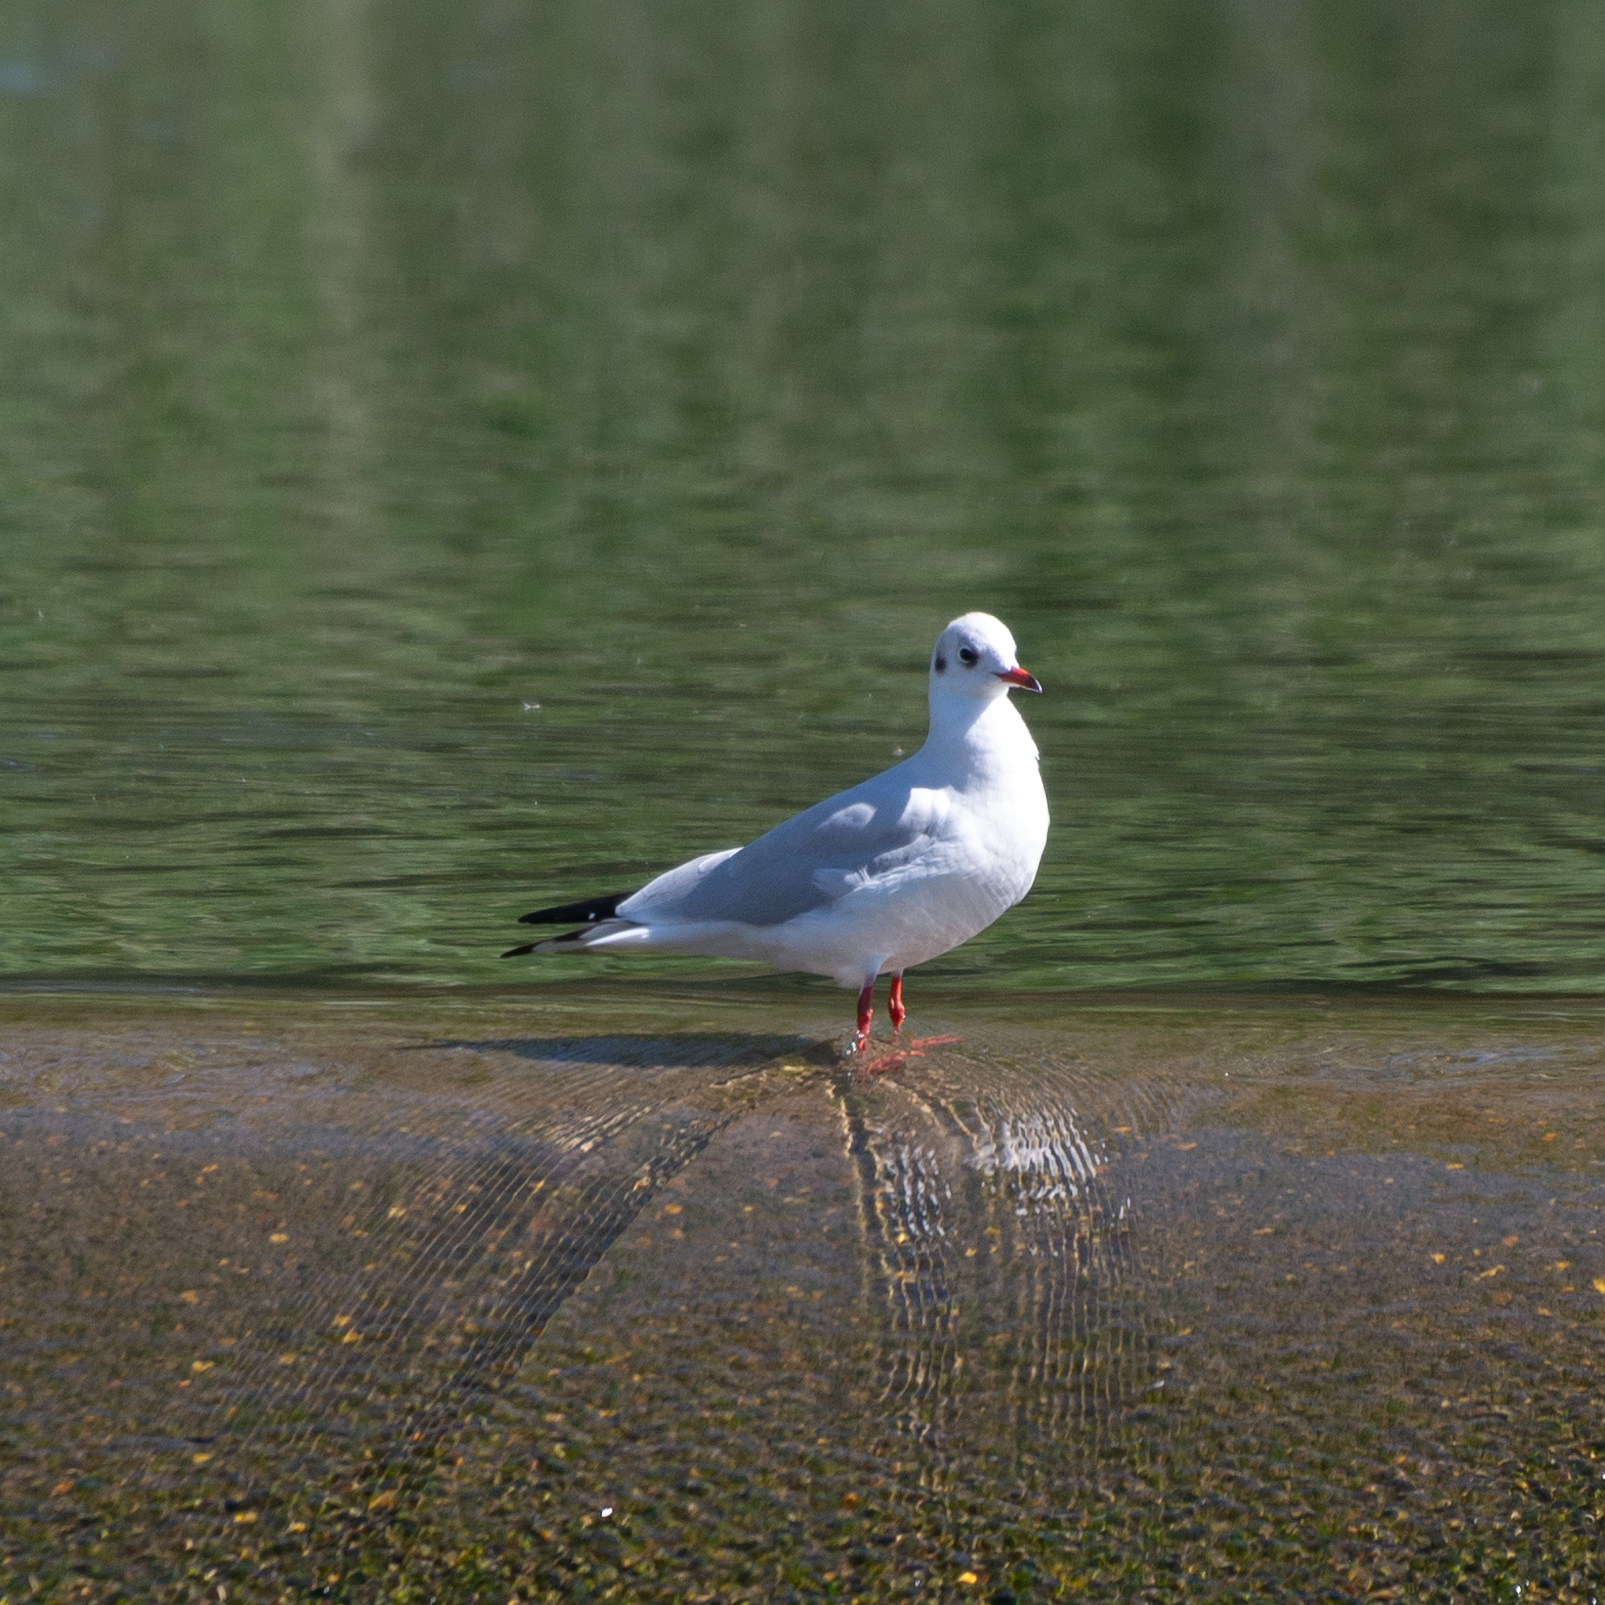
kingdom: Animalia
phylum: Chordata
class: Aves
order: Charadriiformes
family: Laridae
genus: Chroicocephalus
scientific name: Chroicocephalus ridibundus
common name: Black-headed gull
